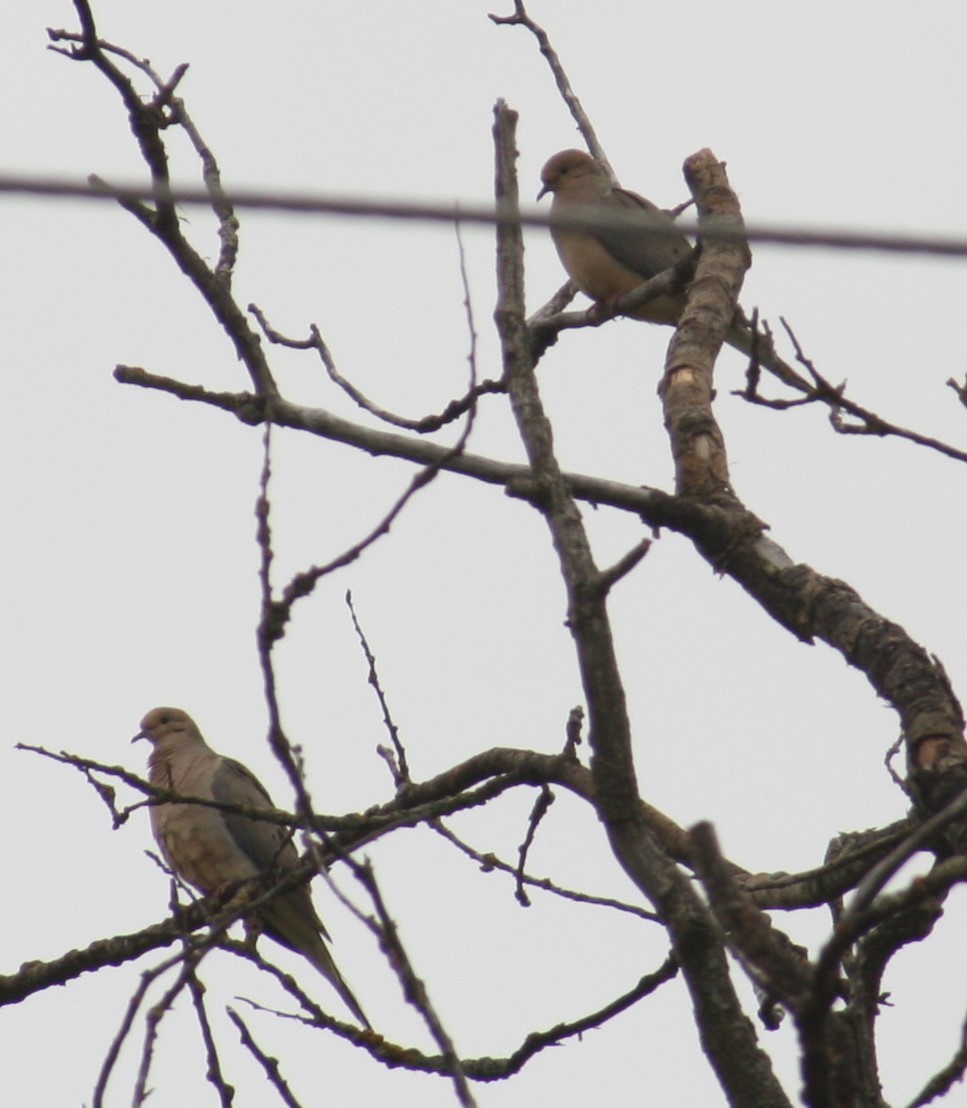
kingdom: Animalia
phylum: Chordata
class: Aves
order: Columbiformes
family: Columbidae
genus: Zenaida
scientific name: Zenaida macroura
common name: Mourning dove
